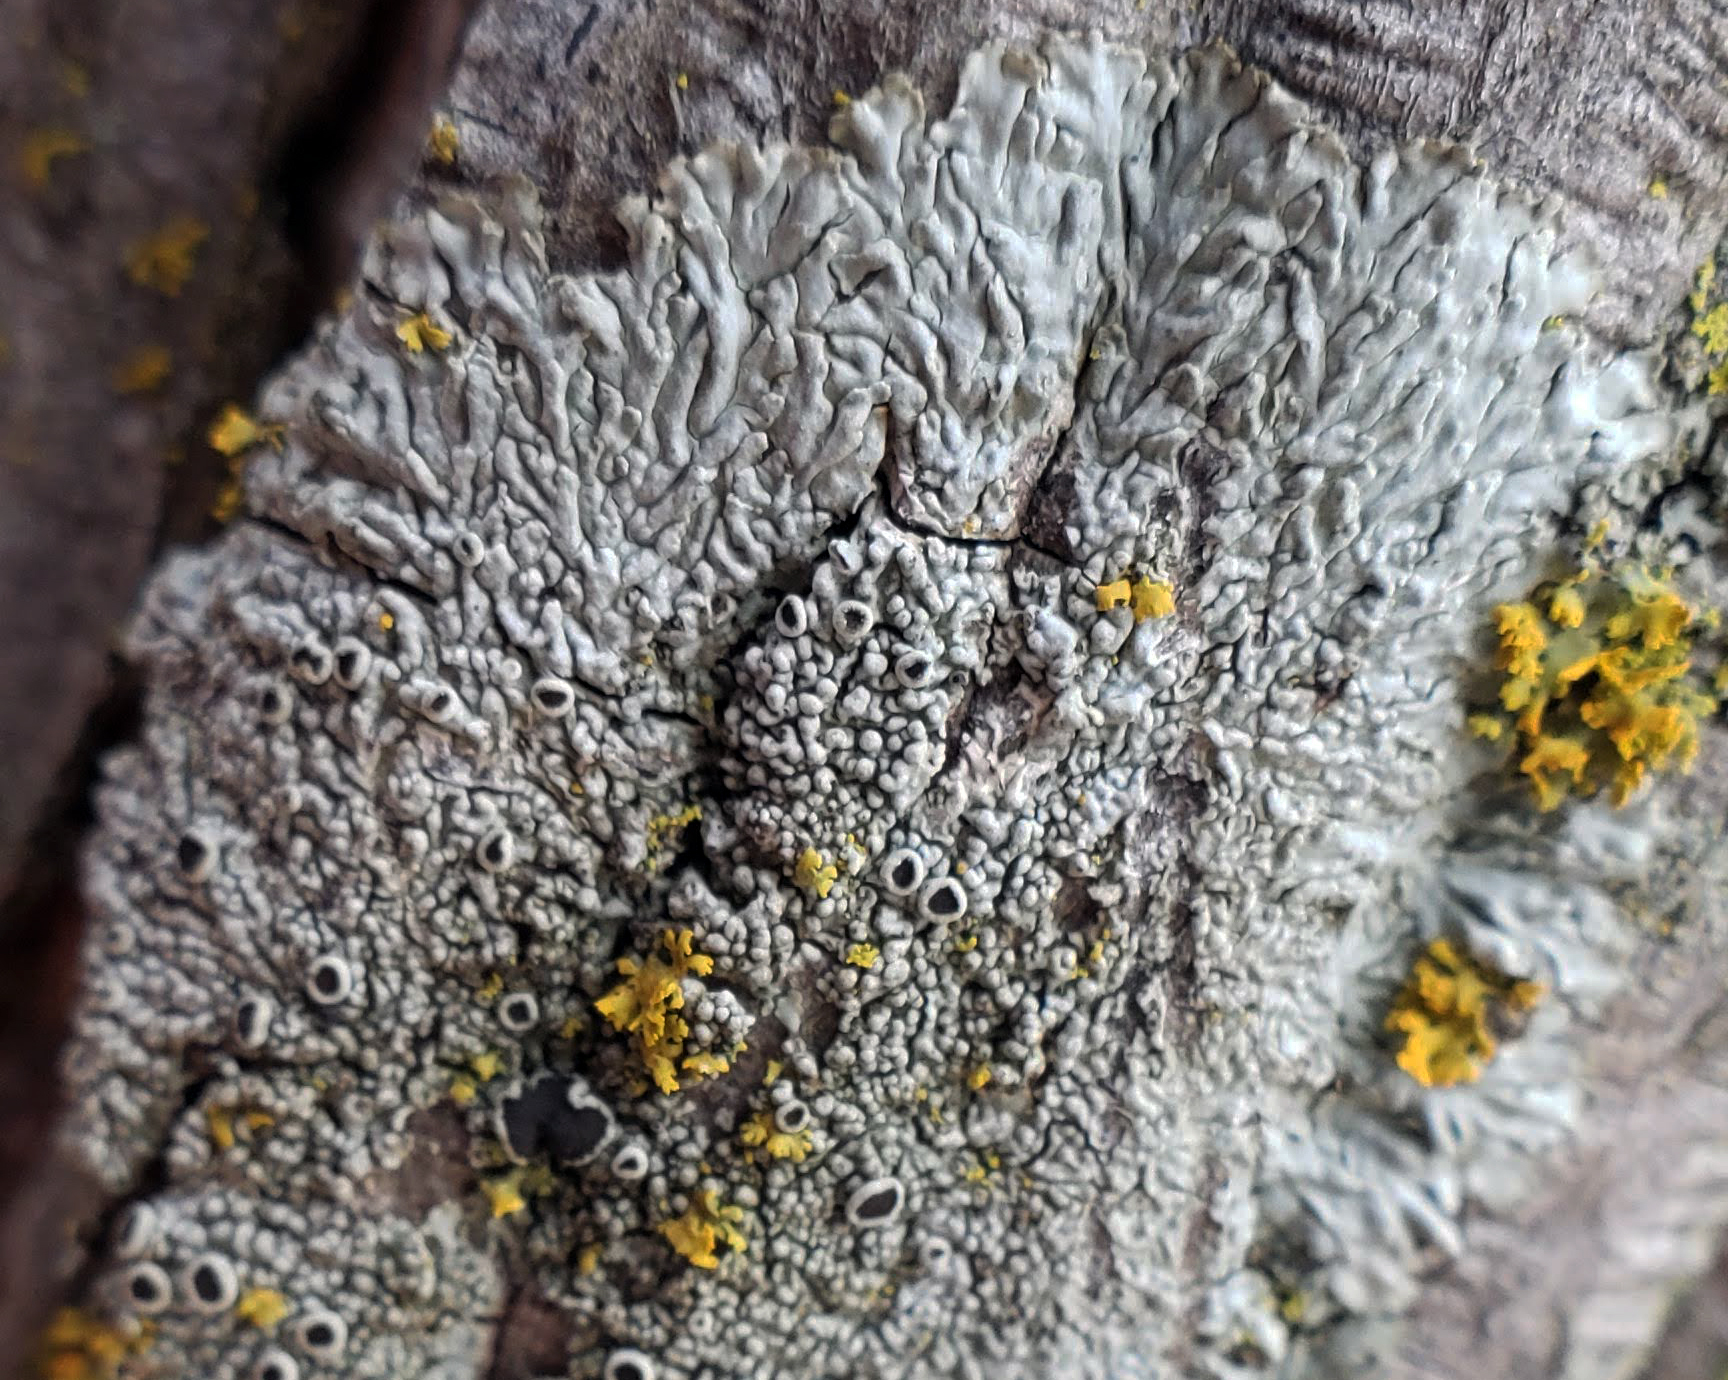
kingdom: Fungi
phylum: Ascomycota
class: Lecanoromycetes
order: Caliciales
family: Physciaceae
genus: Hyperphyscia
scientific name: Hyperphyscia syncolla
